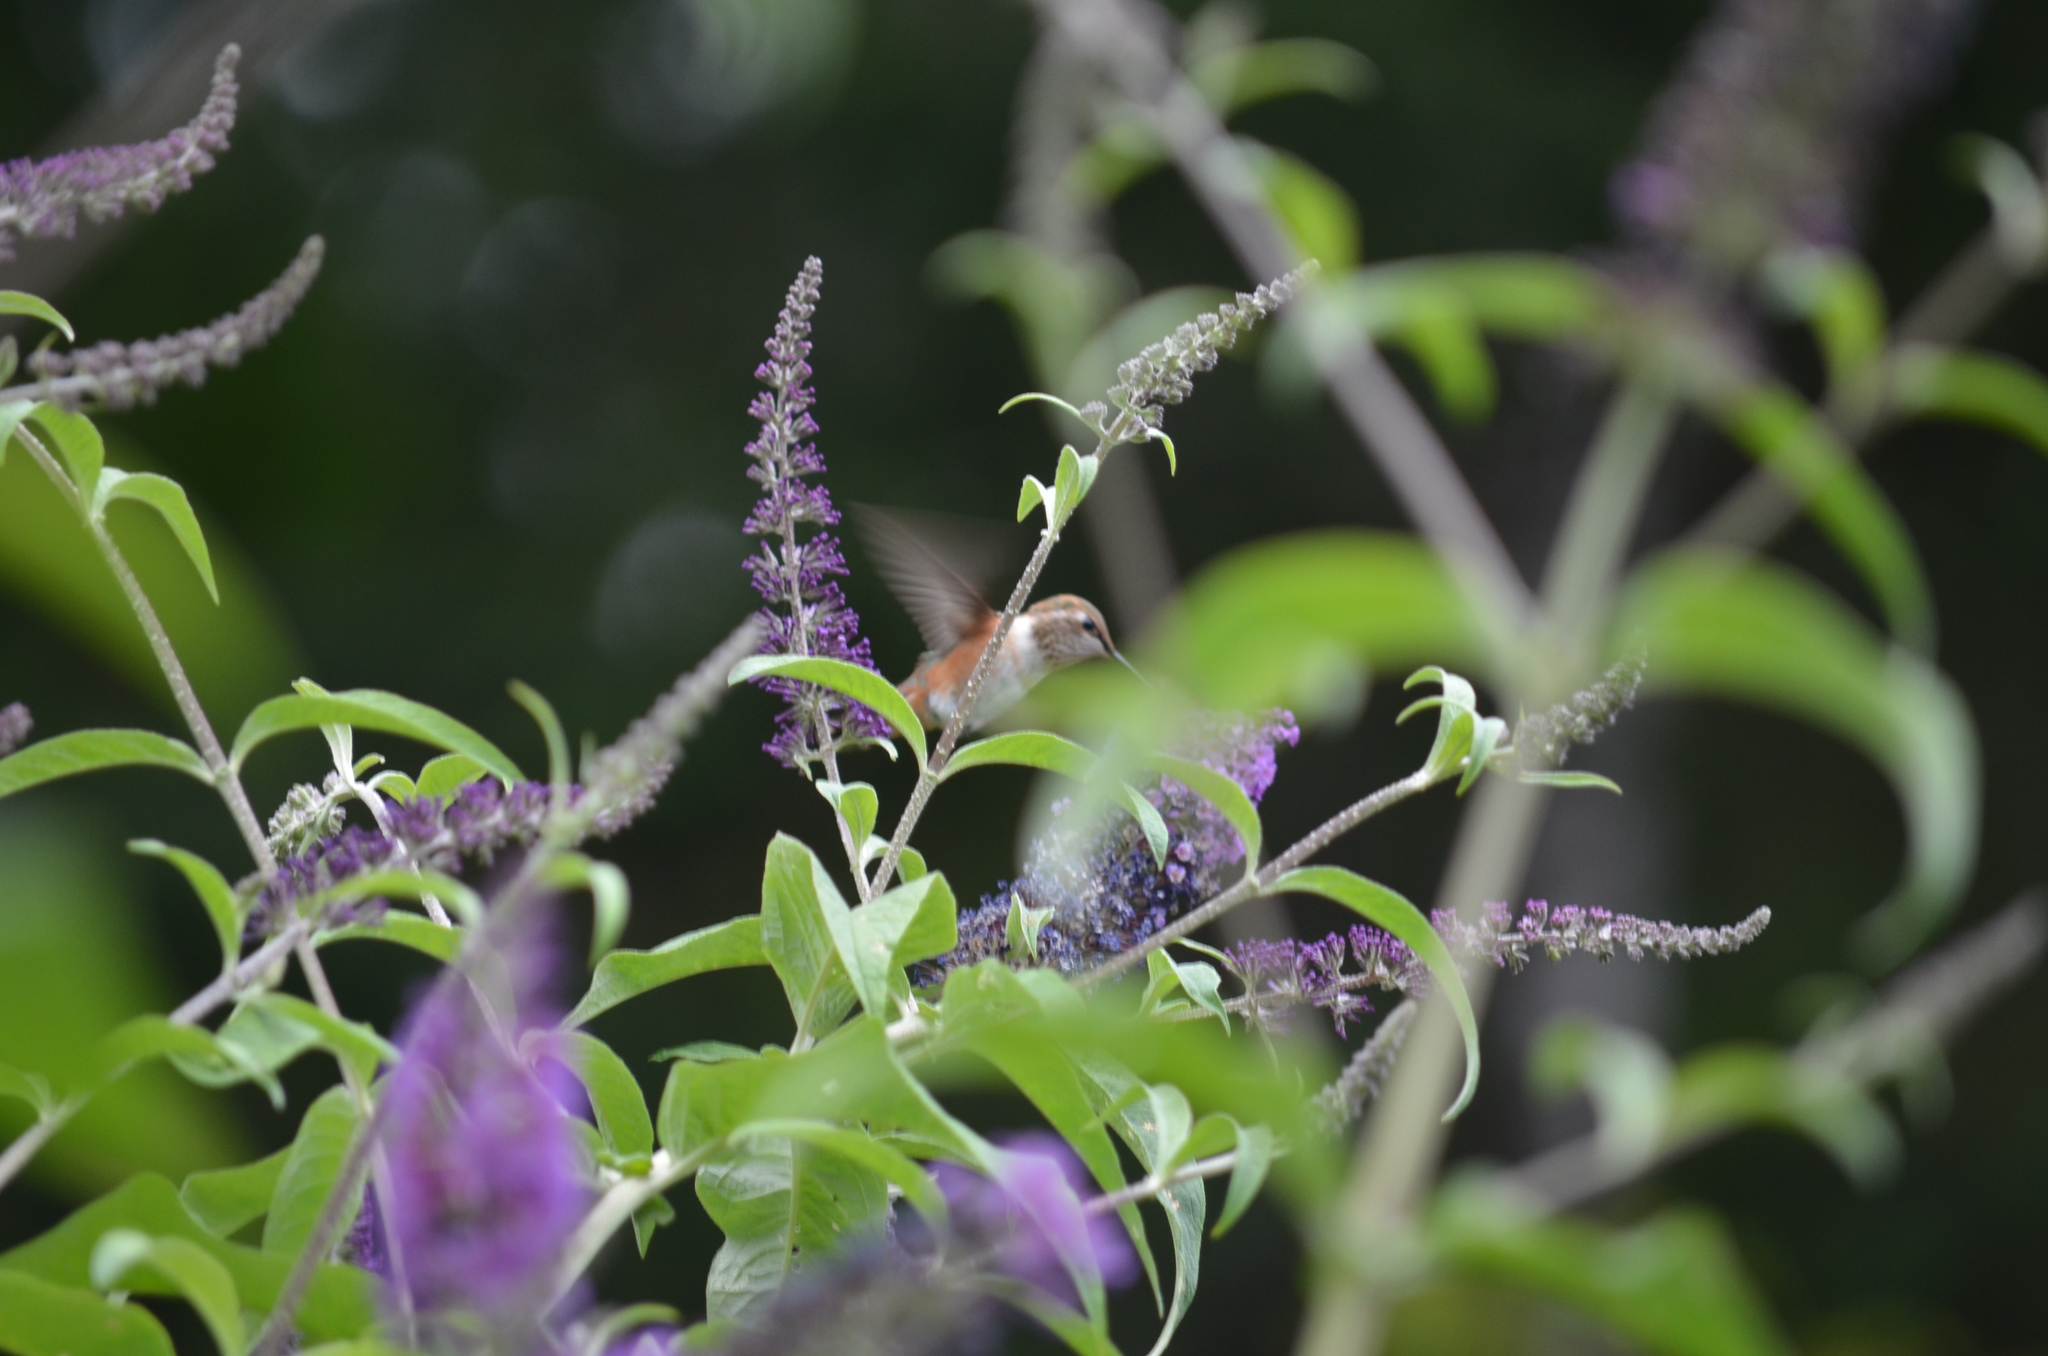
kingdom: Animalia
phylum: Chordata
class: Aves
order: Apodiformes
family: Trochilidae
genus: Selasphorus
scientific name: Selasphorus rufus
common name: Rufous hummingbird
